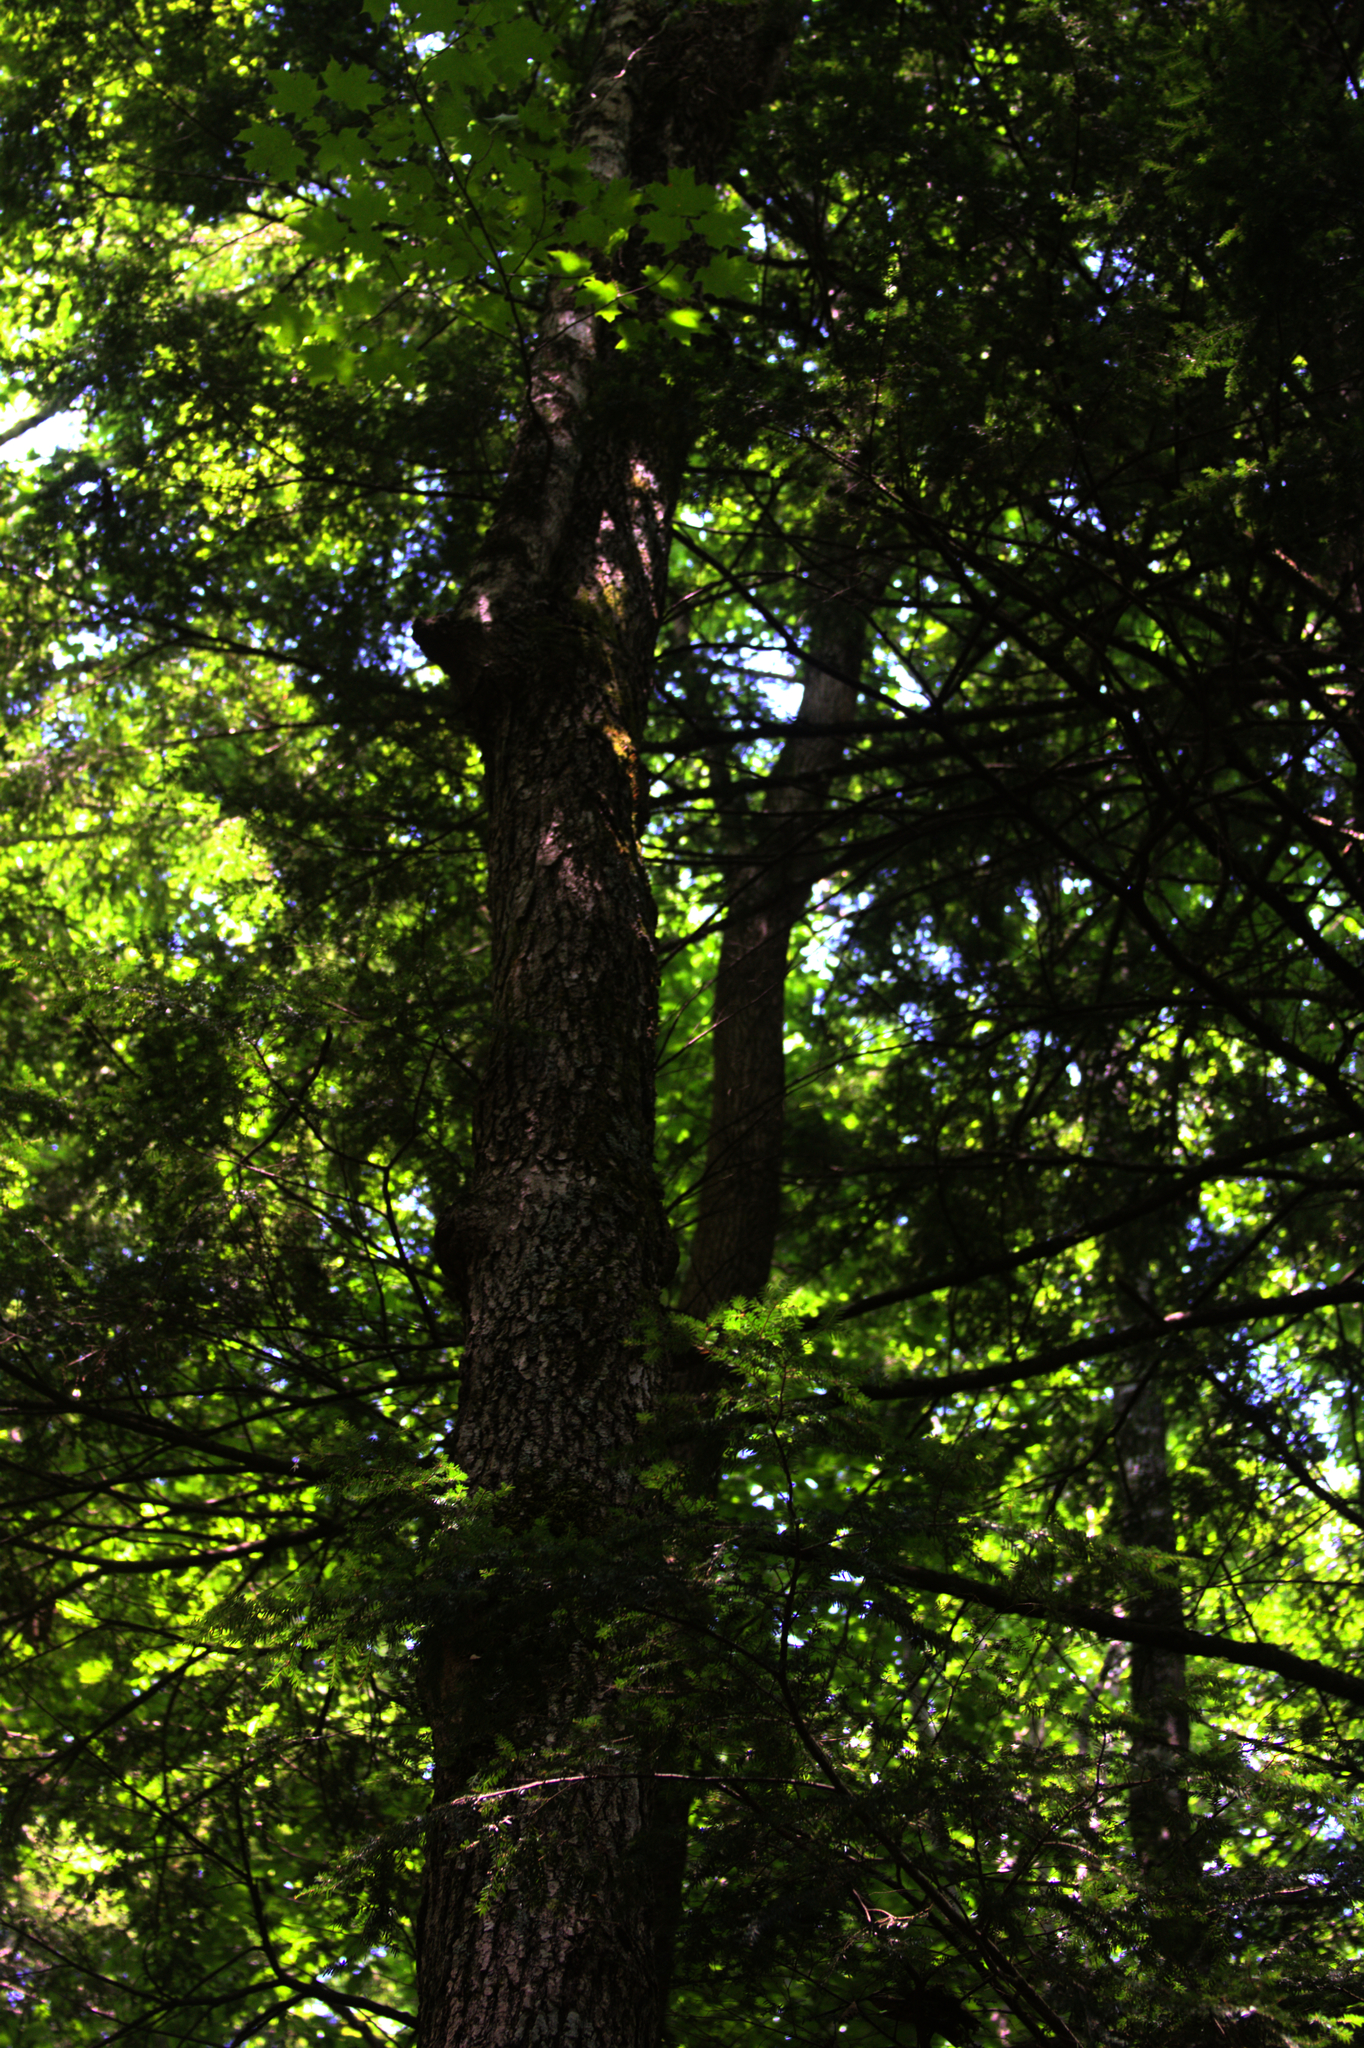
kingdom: Plantae
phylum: Tracheophyta
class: Magnoliopsida
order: Sapindales
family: Sapindaceae
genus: Acer
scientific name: Acer saccharum
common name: Sugar maple
